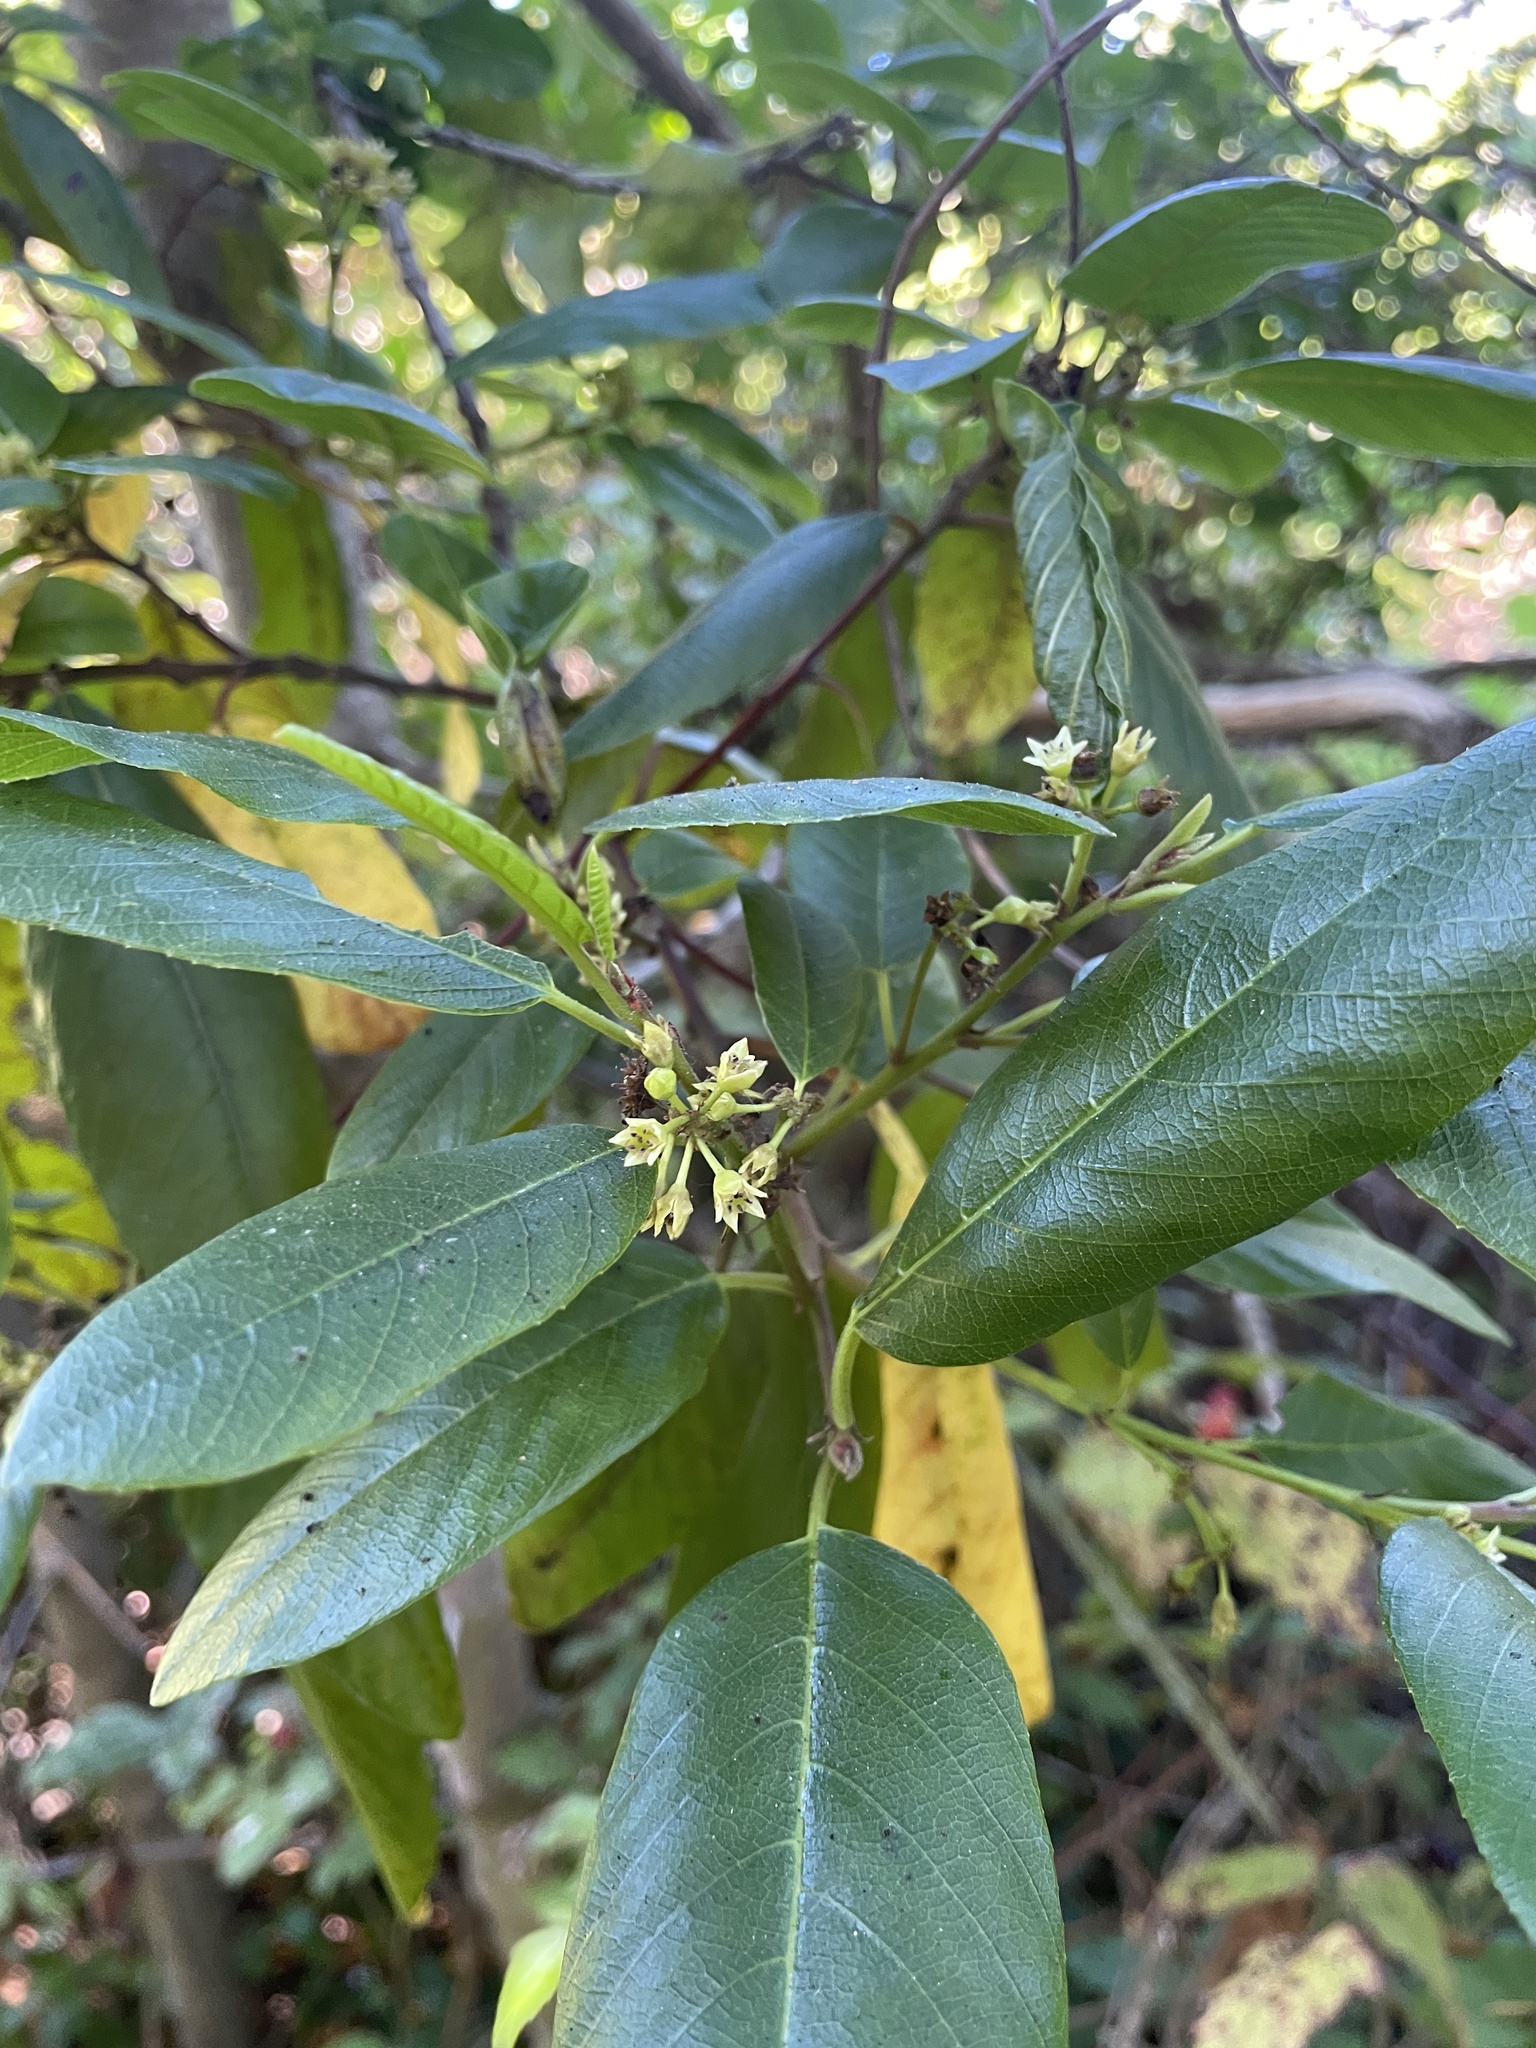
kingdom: Plantae
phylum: Tracheophyta
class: Magnoliopsida
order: Rosales
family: Rhamnaceae
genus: Frangula
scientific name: Frangula californica
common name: California buckthorn
